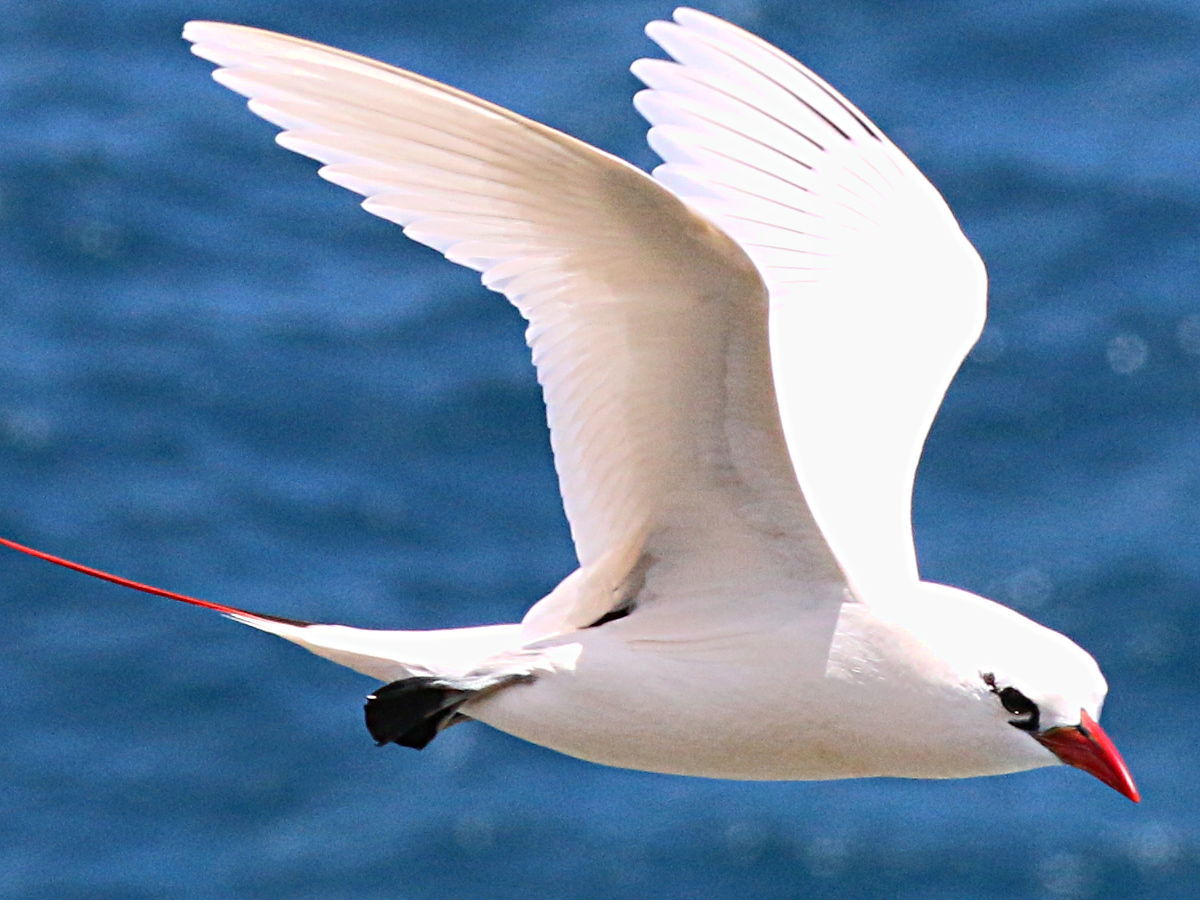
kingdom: Animalia
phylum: Chordata
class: Aves
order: Phaethontiformes
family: Phaethontidae
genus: Phaethon
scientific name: Phaethon rubricauda
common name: Red-tailed tropicbird
